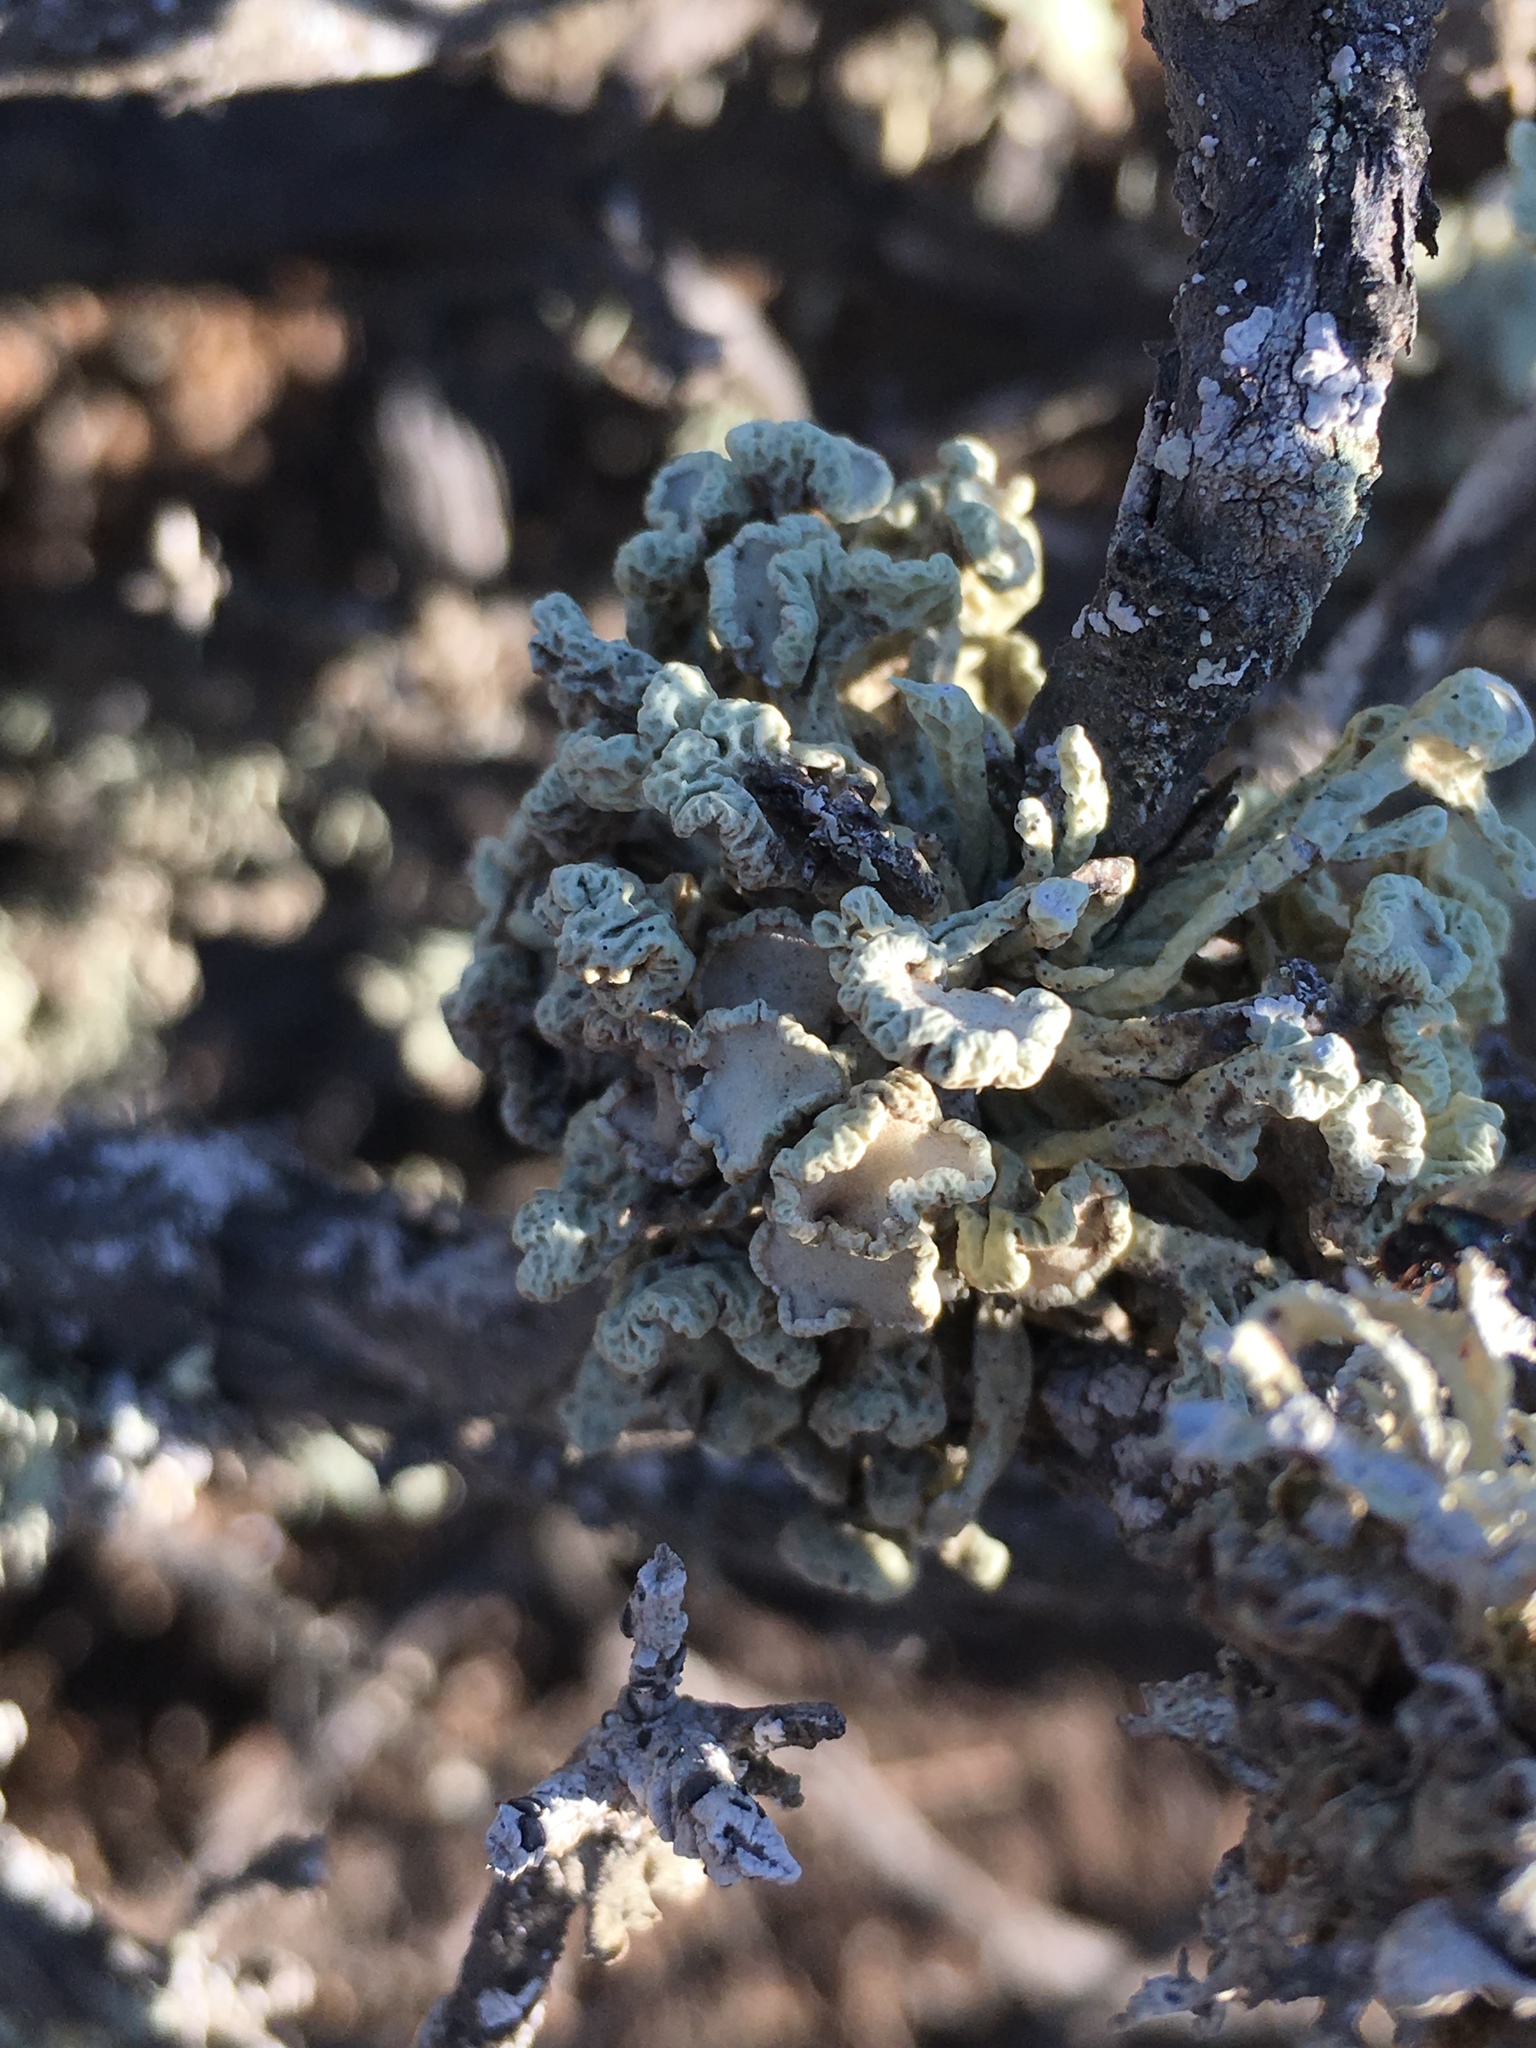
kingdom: Fungi
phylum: Ascomycota
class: Lecanoromycetes
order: Lecanorales
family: Ramalinaceae
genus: Niebla
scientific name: Niebla ceruchis
